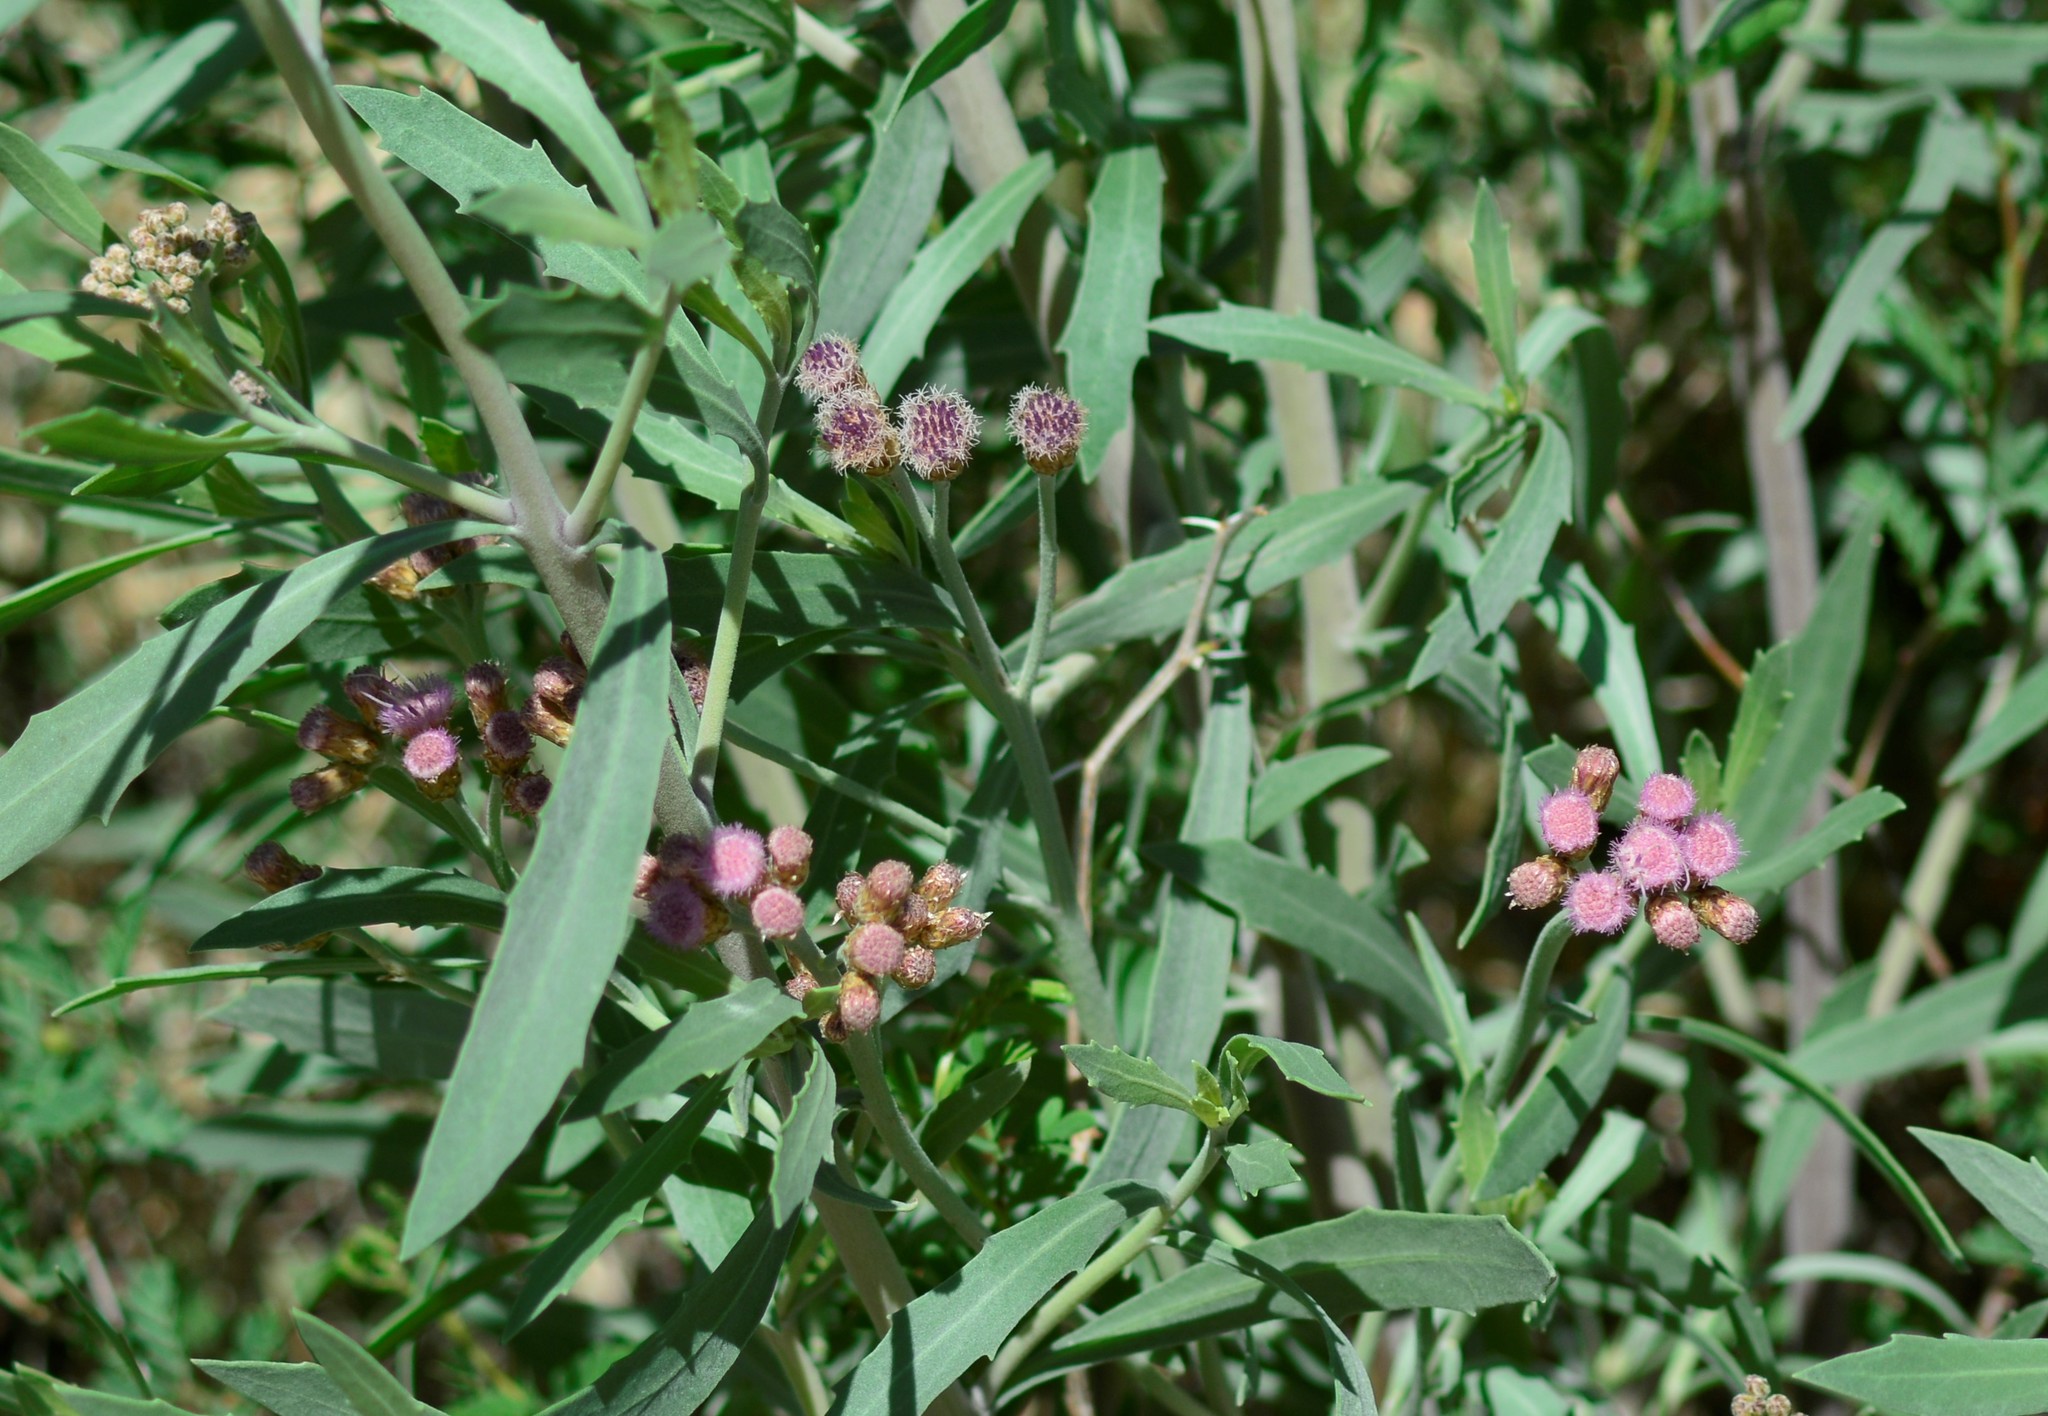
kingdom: Plantae
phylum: Tracheophyta
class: Magnoliopsida
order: Asterales
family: Asteraceae
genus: Tessaria
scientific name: Tessaria absinthioides
